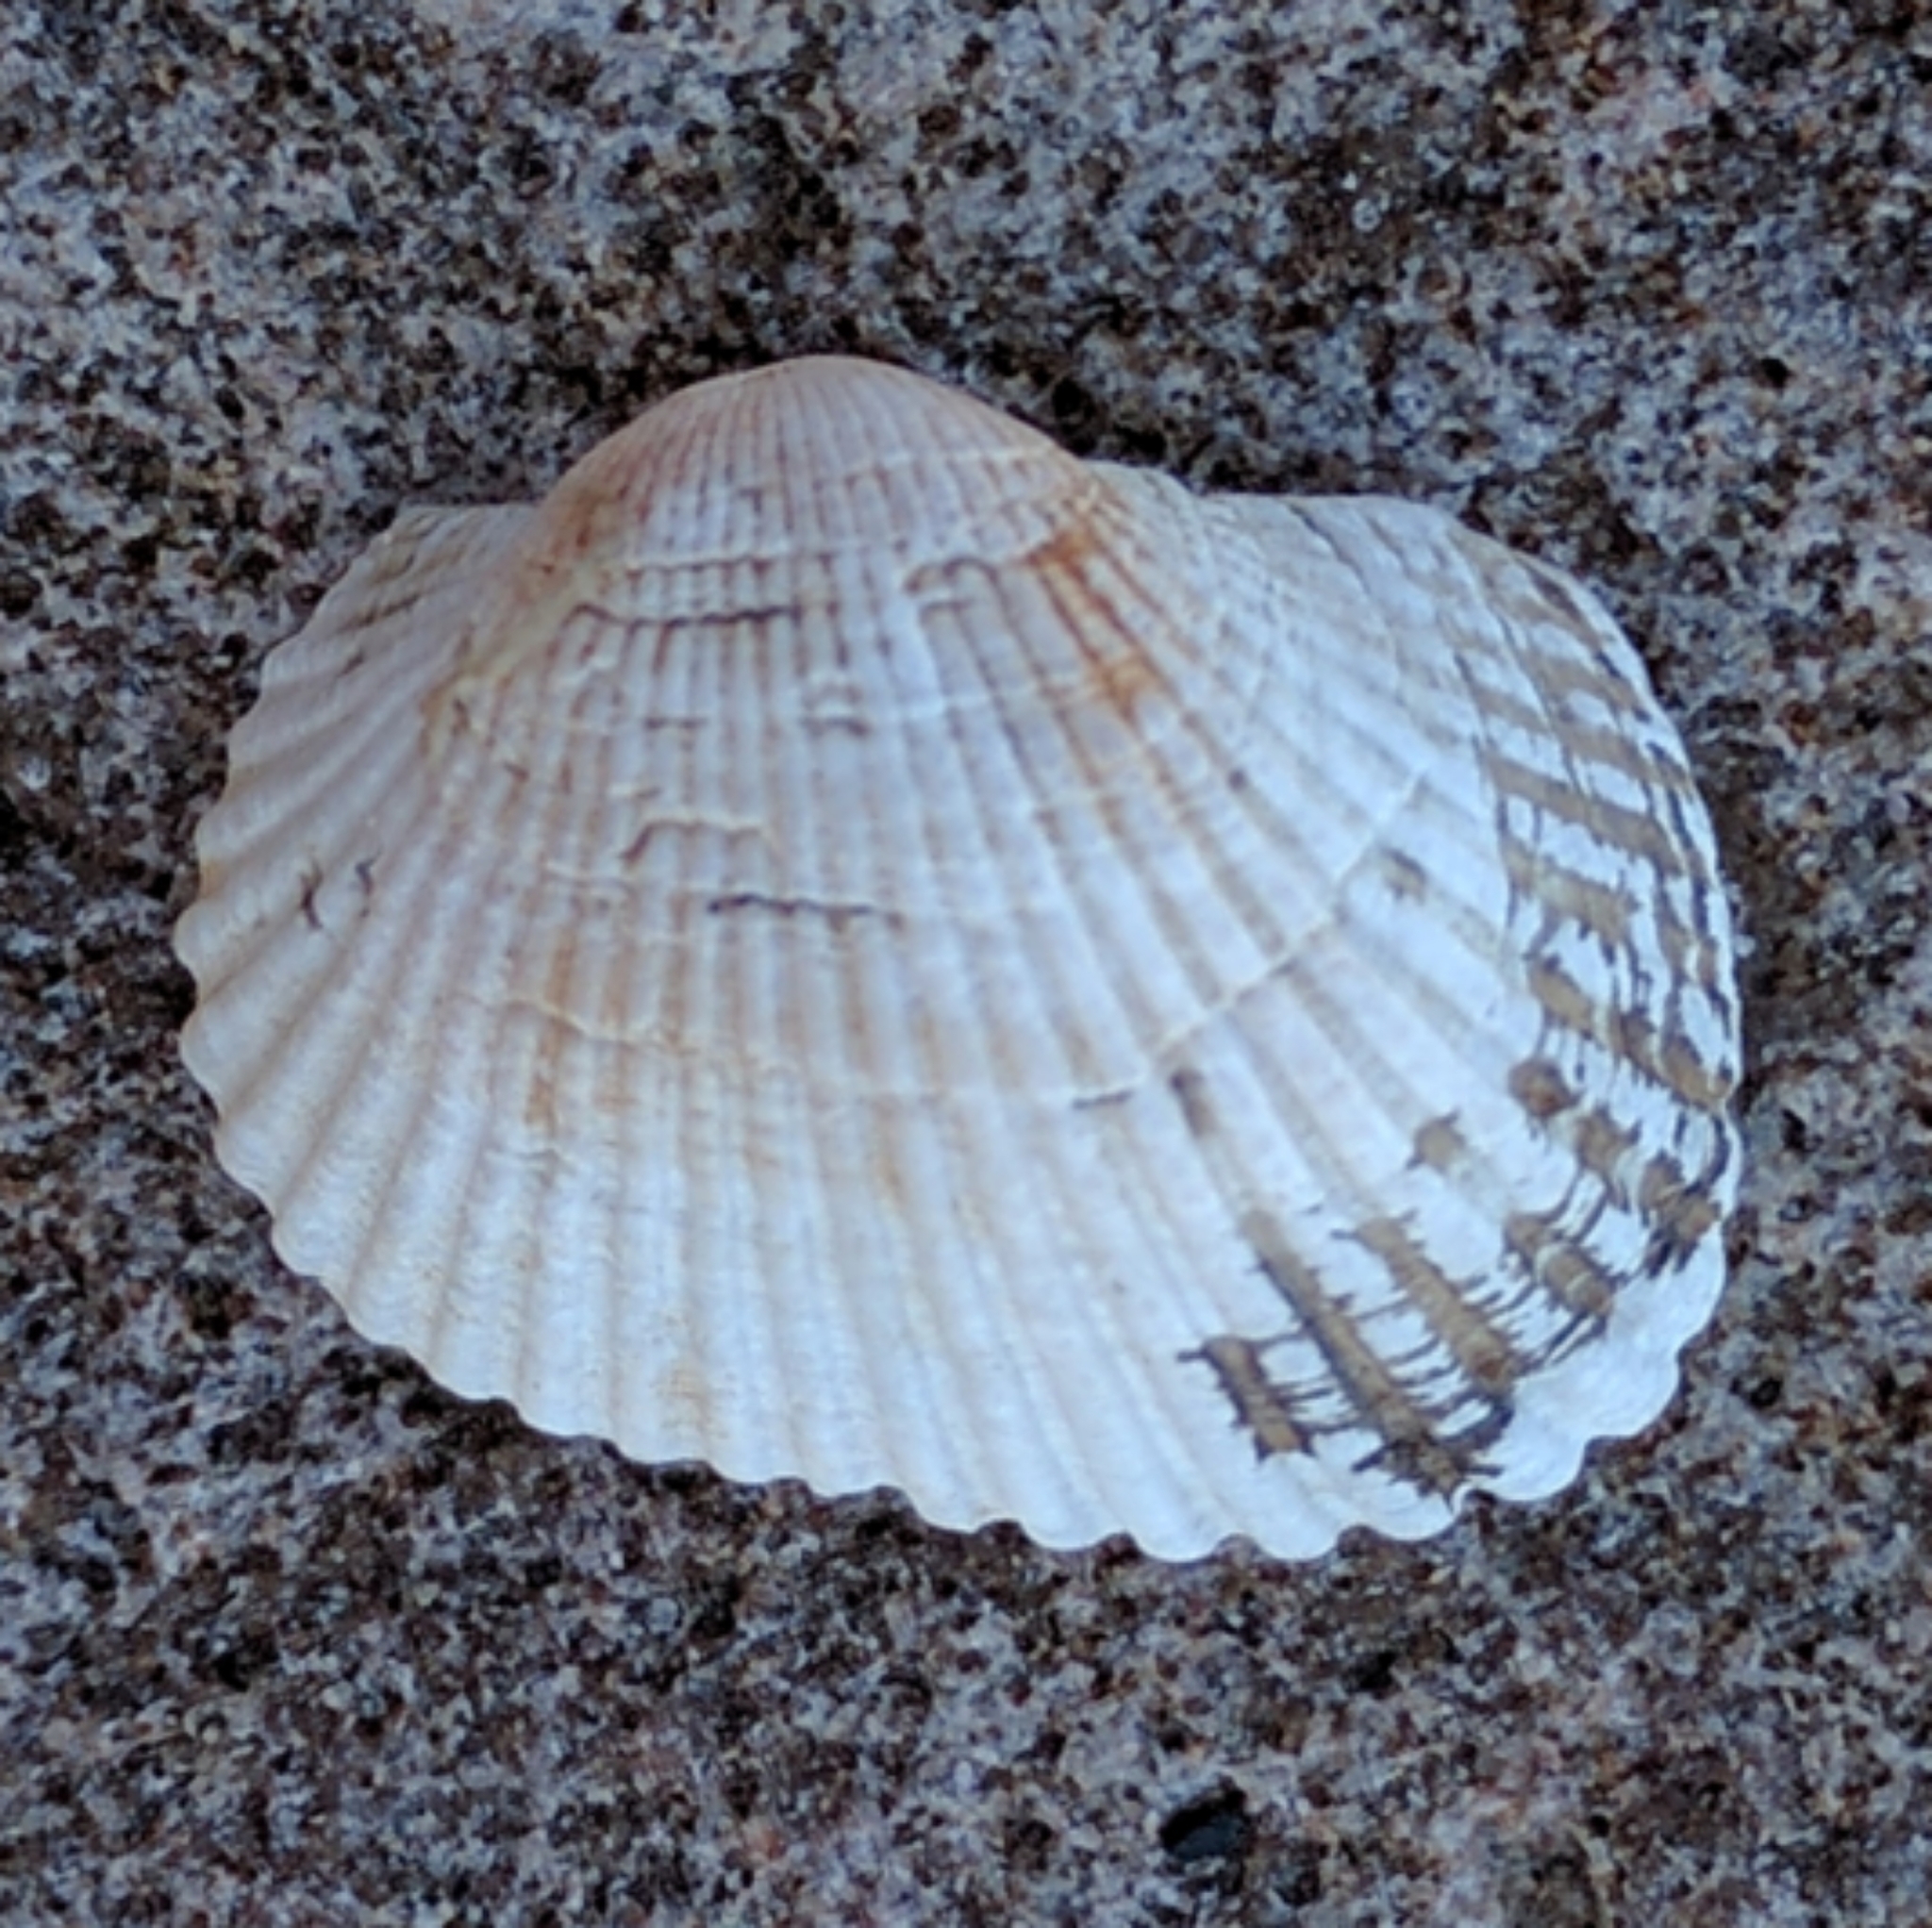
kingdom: Animalia
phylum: Mollusca
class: Bivalvia
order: Arcida
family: Arcidae
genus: Anadara
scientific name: Anadara transversa
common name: Transverse ark
